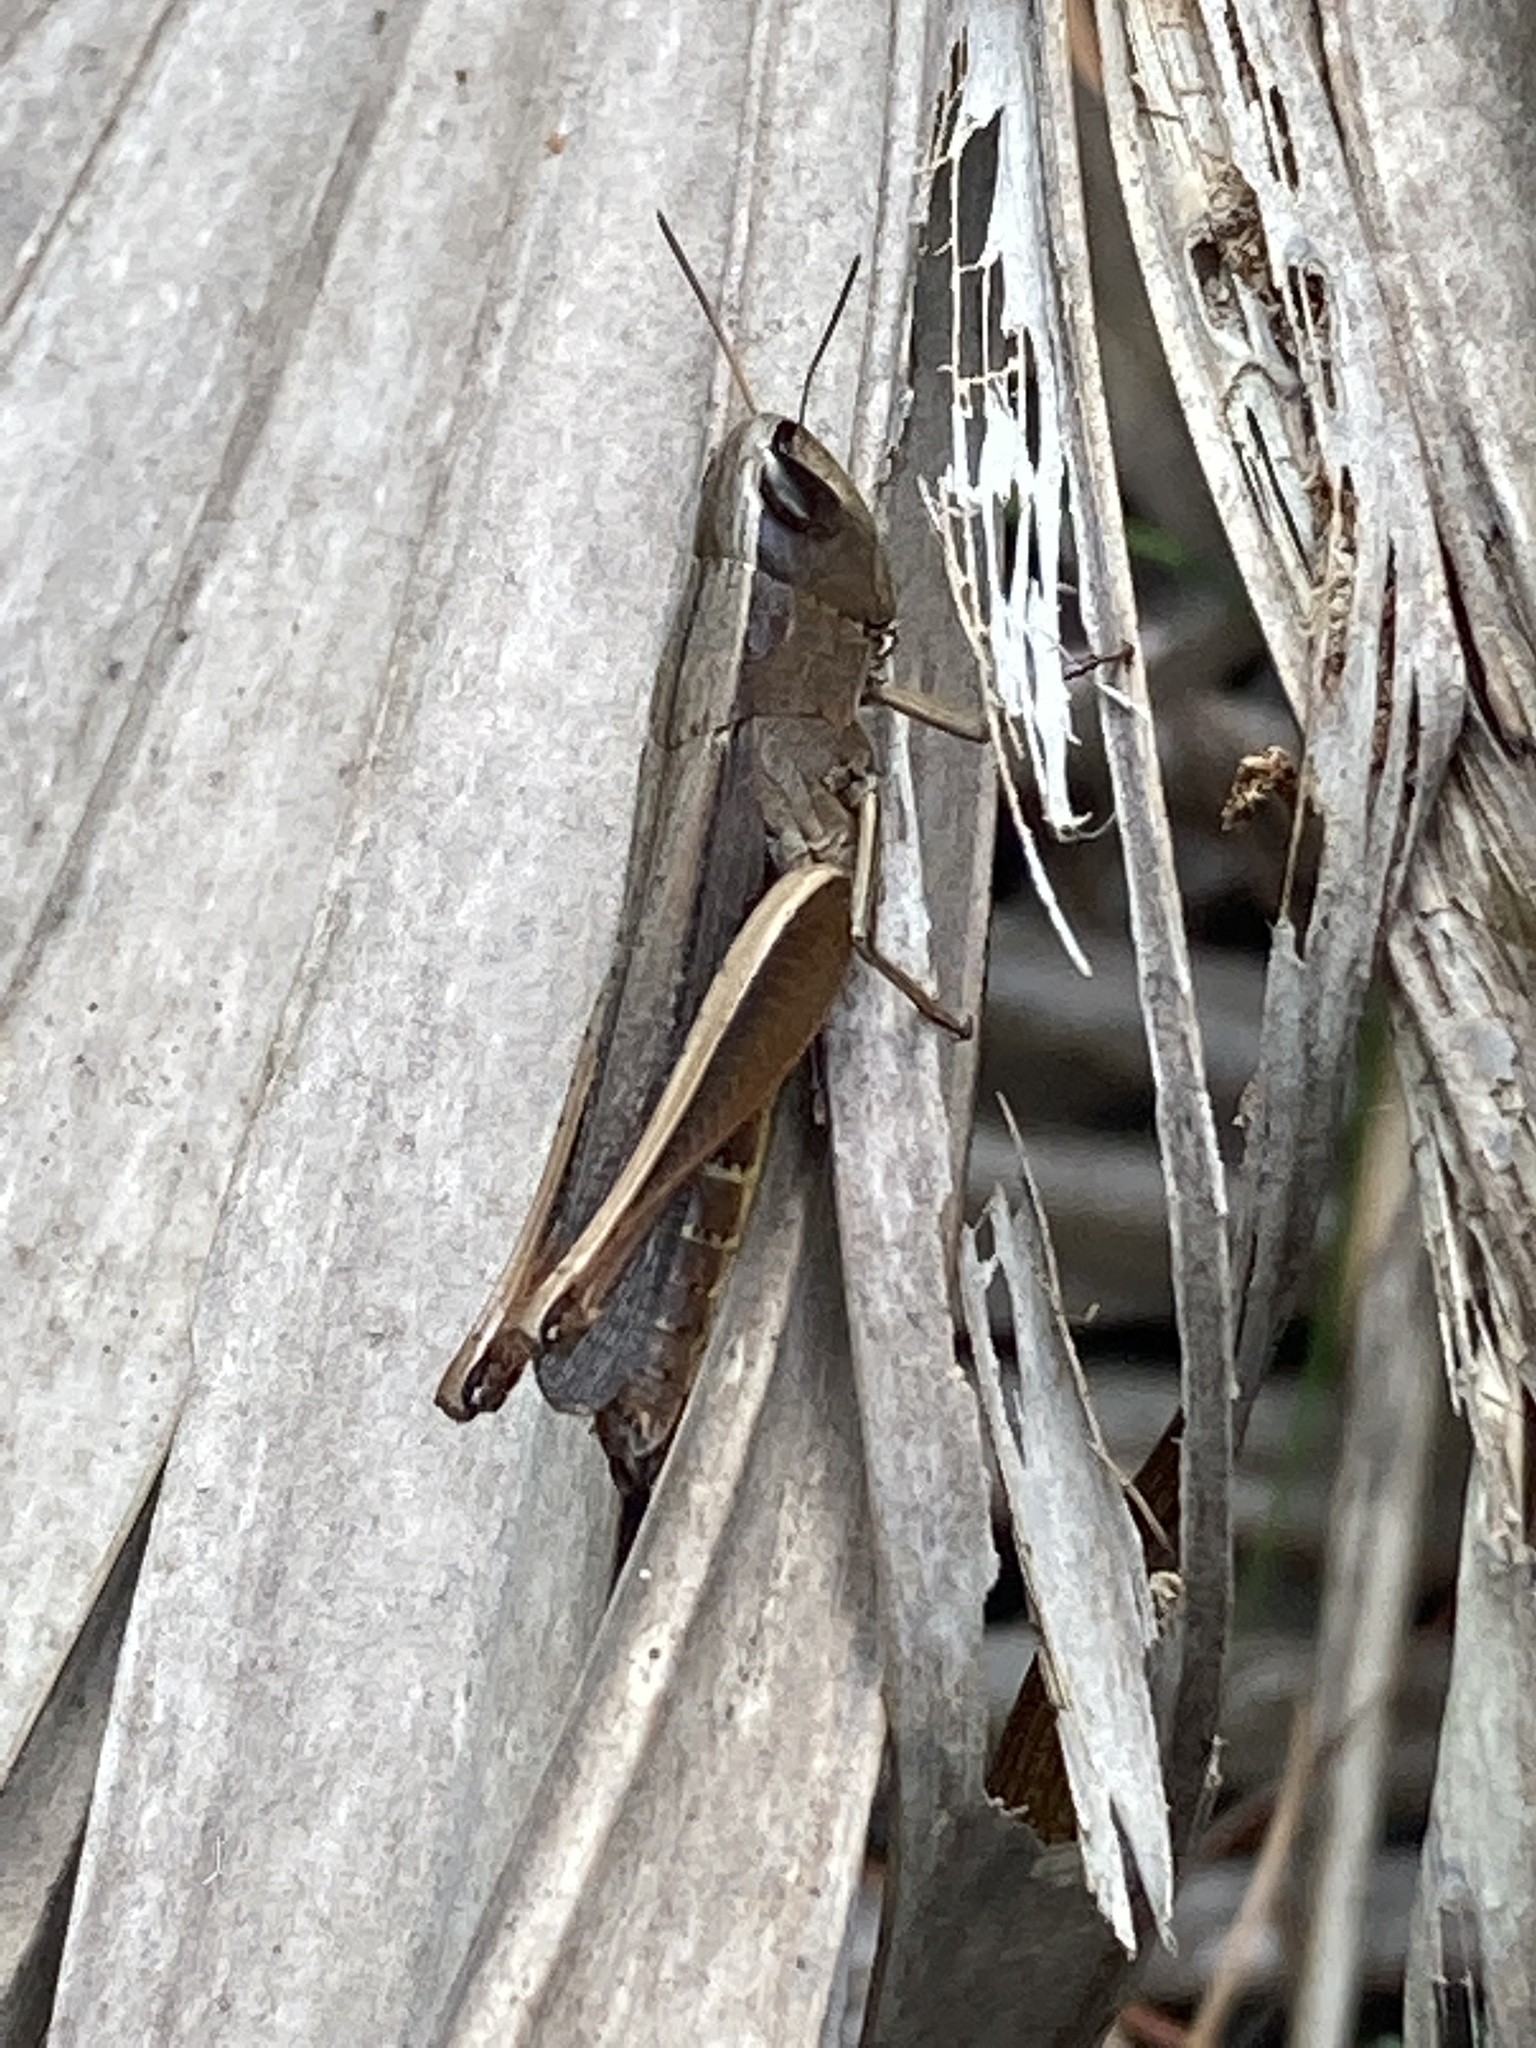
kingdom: Animalia
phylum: Arthropoda
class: Insecta
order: Orthoptera
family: Acrididae
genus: Amblytropidia
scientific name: Amblytropidia mysteca
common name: Brown winter grasshopper
